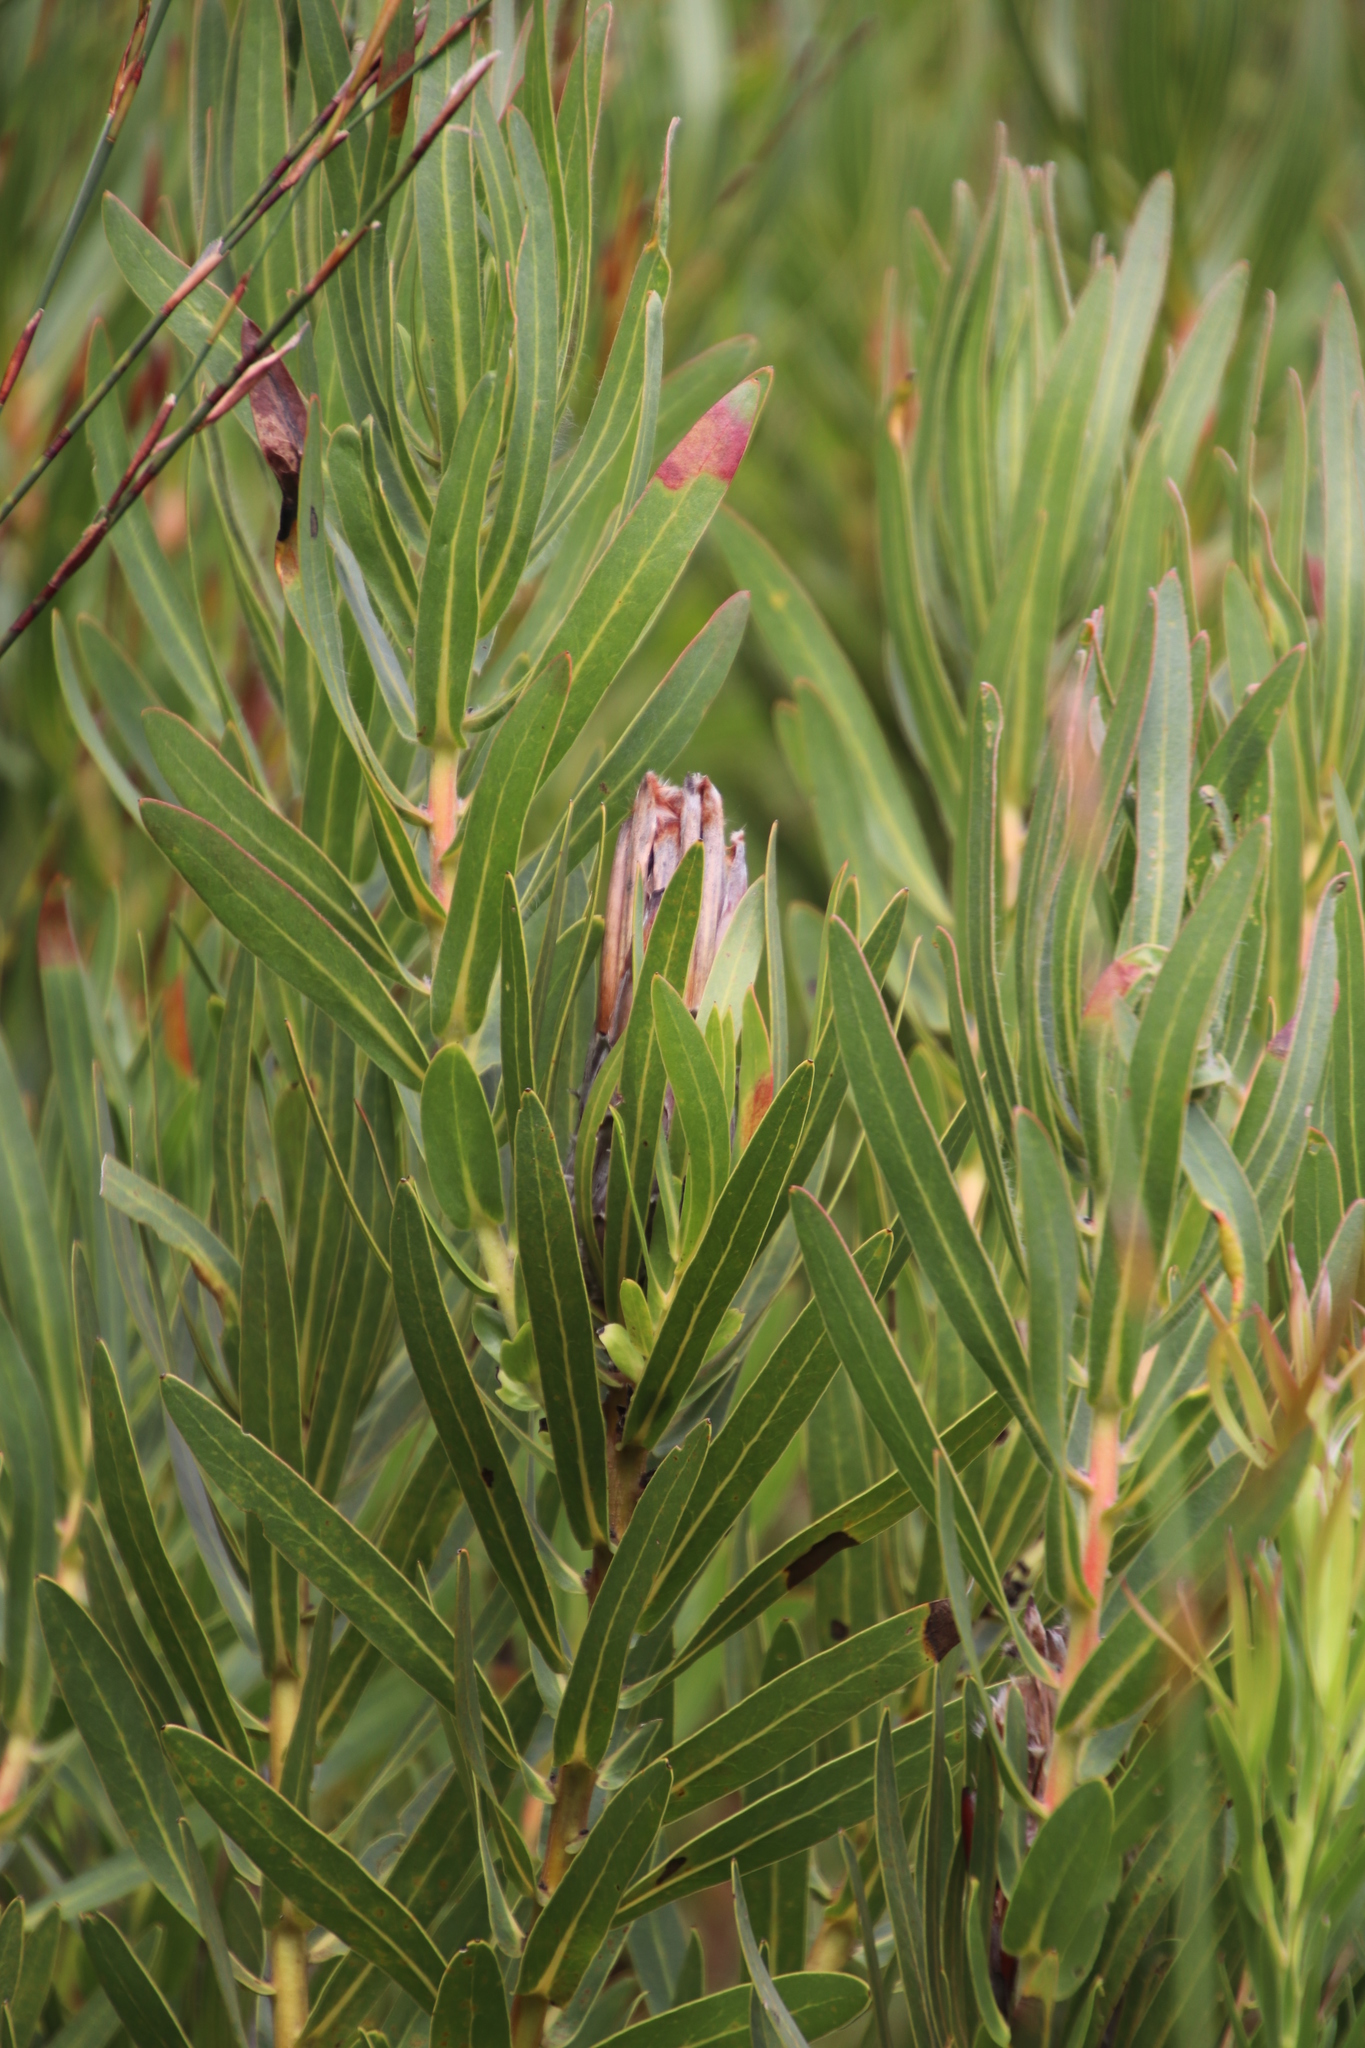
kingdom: Plantae
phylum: Tracheophyta
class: Magnoliopsida
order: Proteales
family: Proteaceae
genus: Protea
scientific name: Protea lepidocarpodendron
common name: Black-bearded protea
